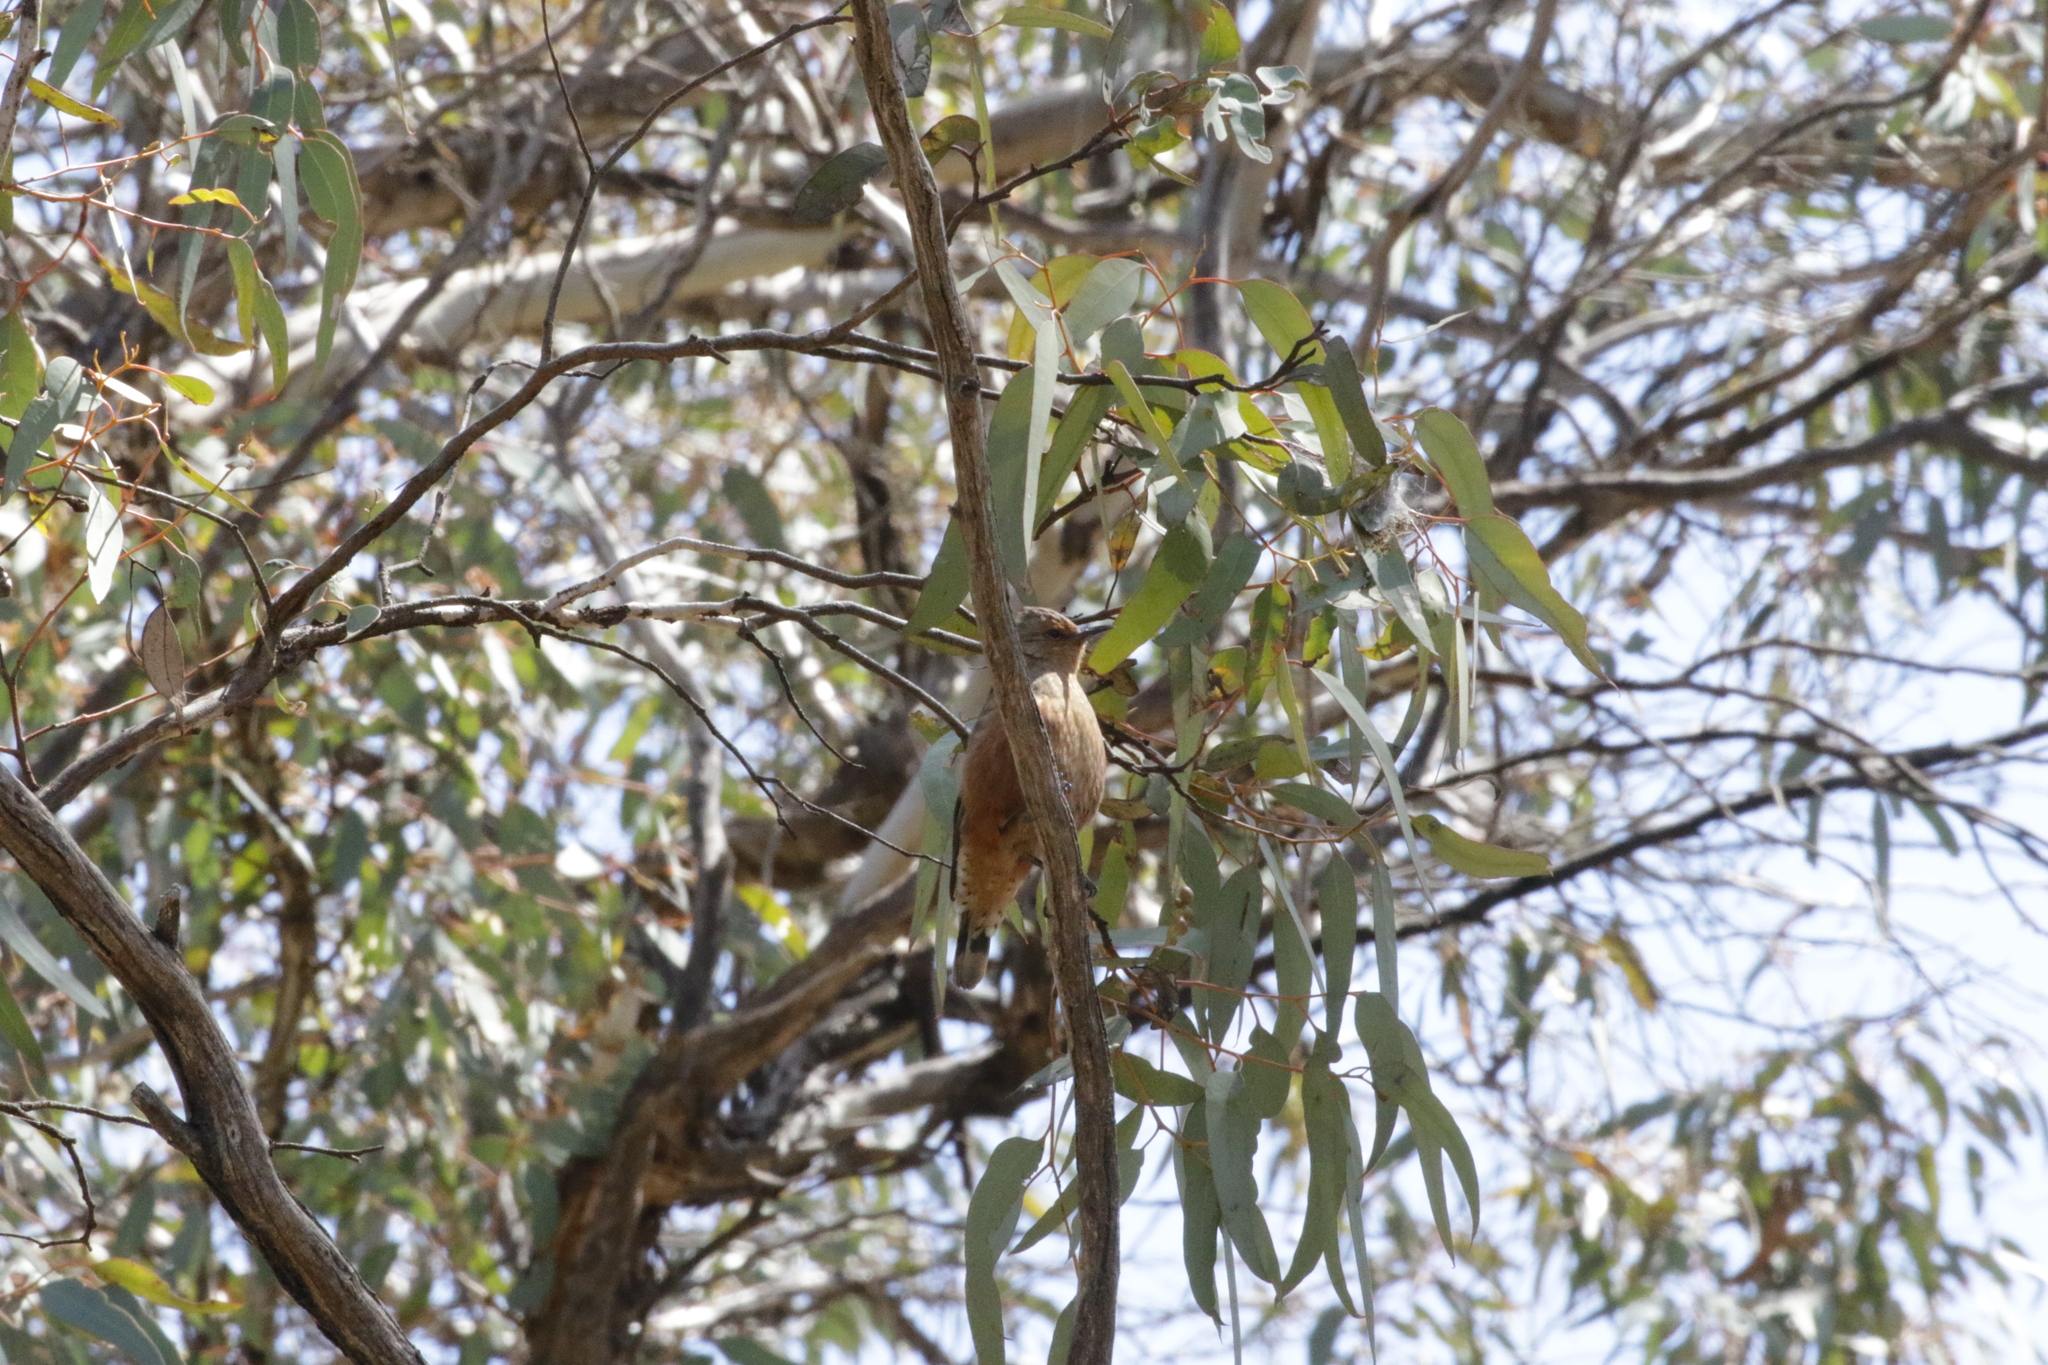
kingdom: Animalia
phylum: Chordata
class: Aves
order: Passeriformes
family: Climacteridae
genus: Climacteris
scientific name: Climacteris rufus
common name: Rufous treecreeper
